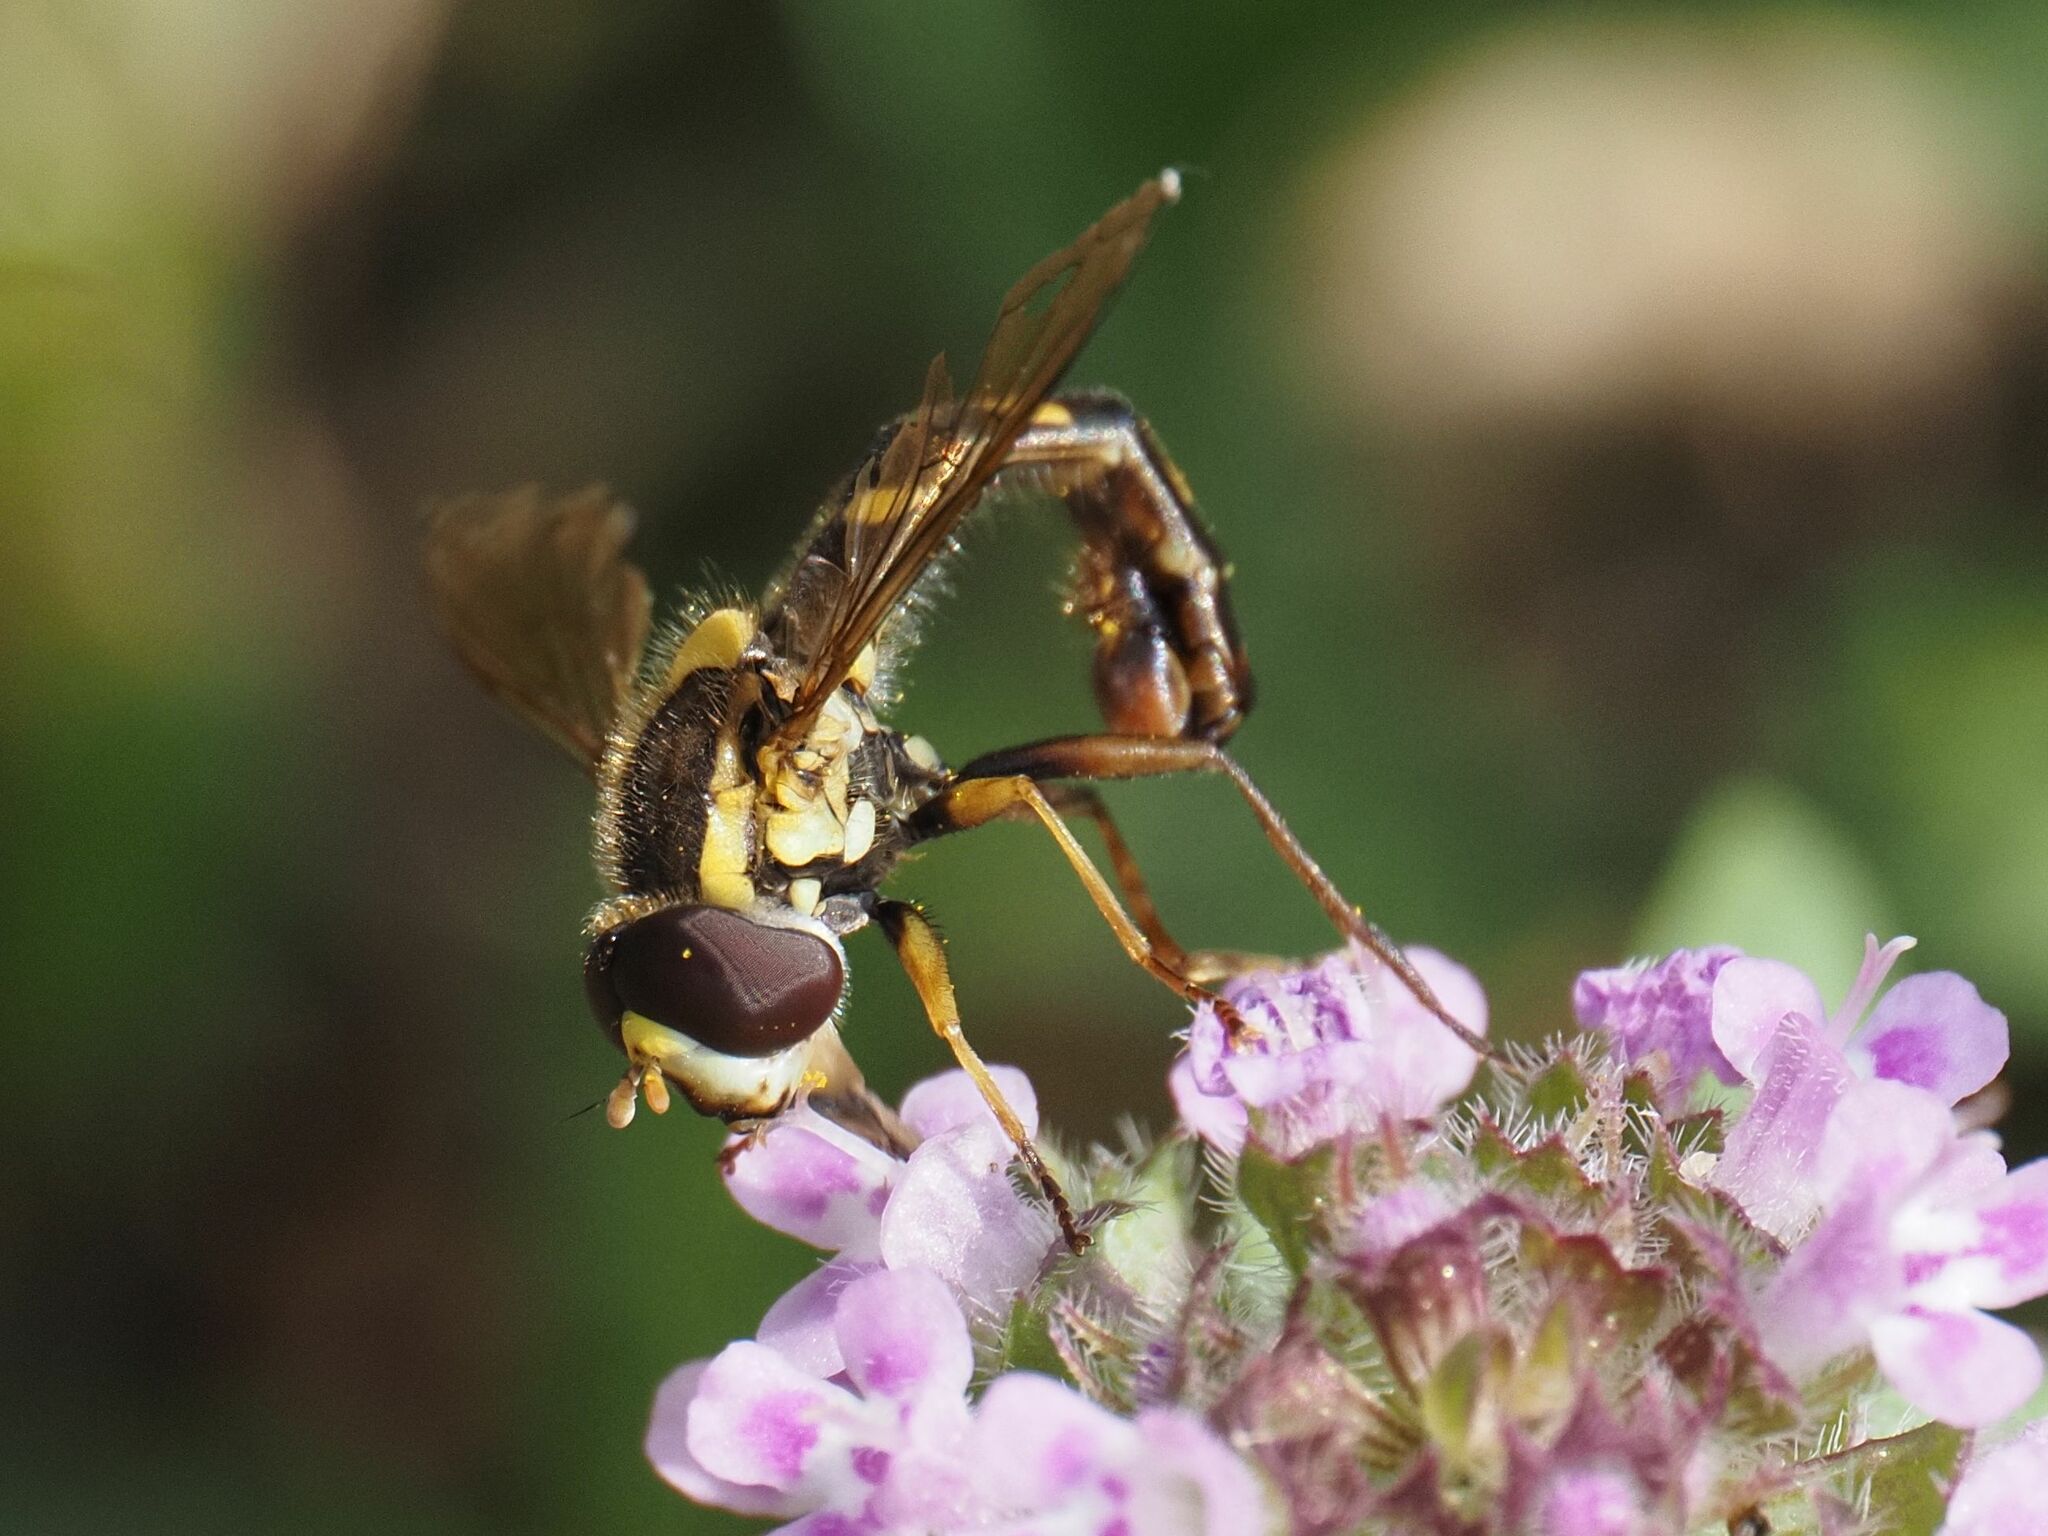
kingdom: Animalia
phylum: Arthropoda
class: Insecta
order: Diptera
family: Syrphidae
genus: Sphaerophoria
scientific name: Sphaerophoria scripta
